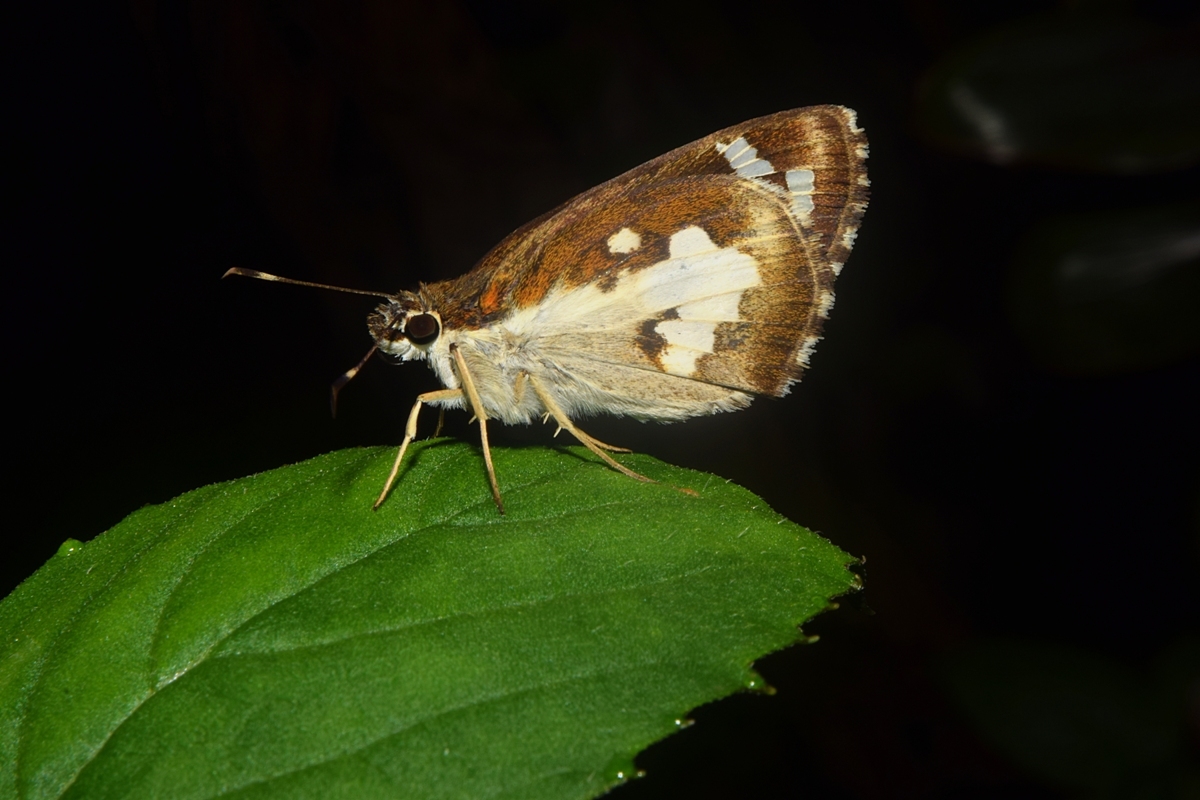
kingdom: Animalia
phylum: Arthropoda
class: Insecta
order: Lepidoptera
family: Hesperiidae
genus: Udaspes
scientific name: Udaspes folus
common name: Grass demon
